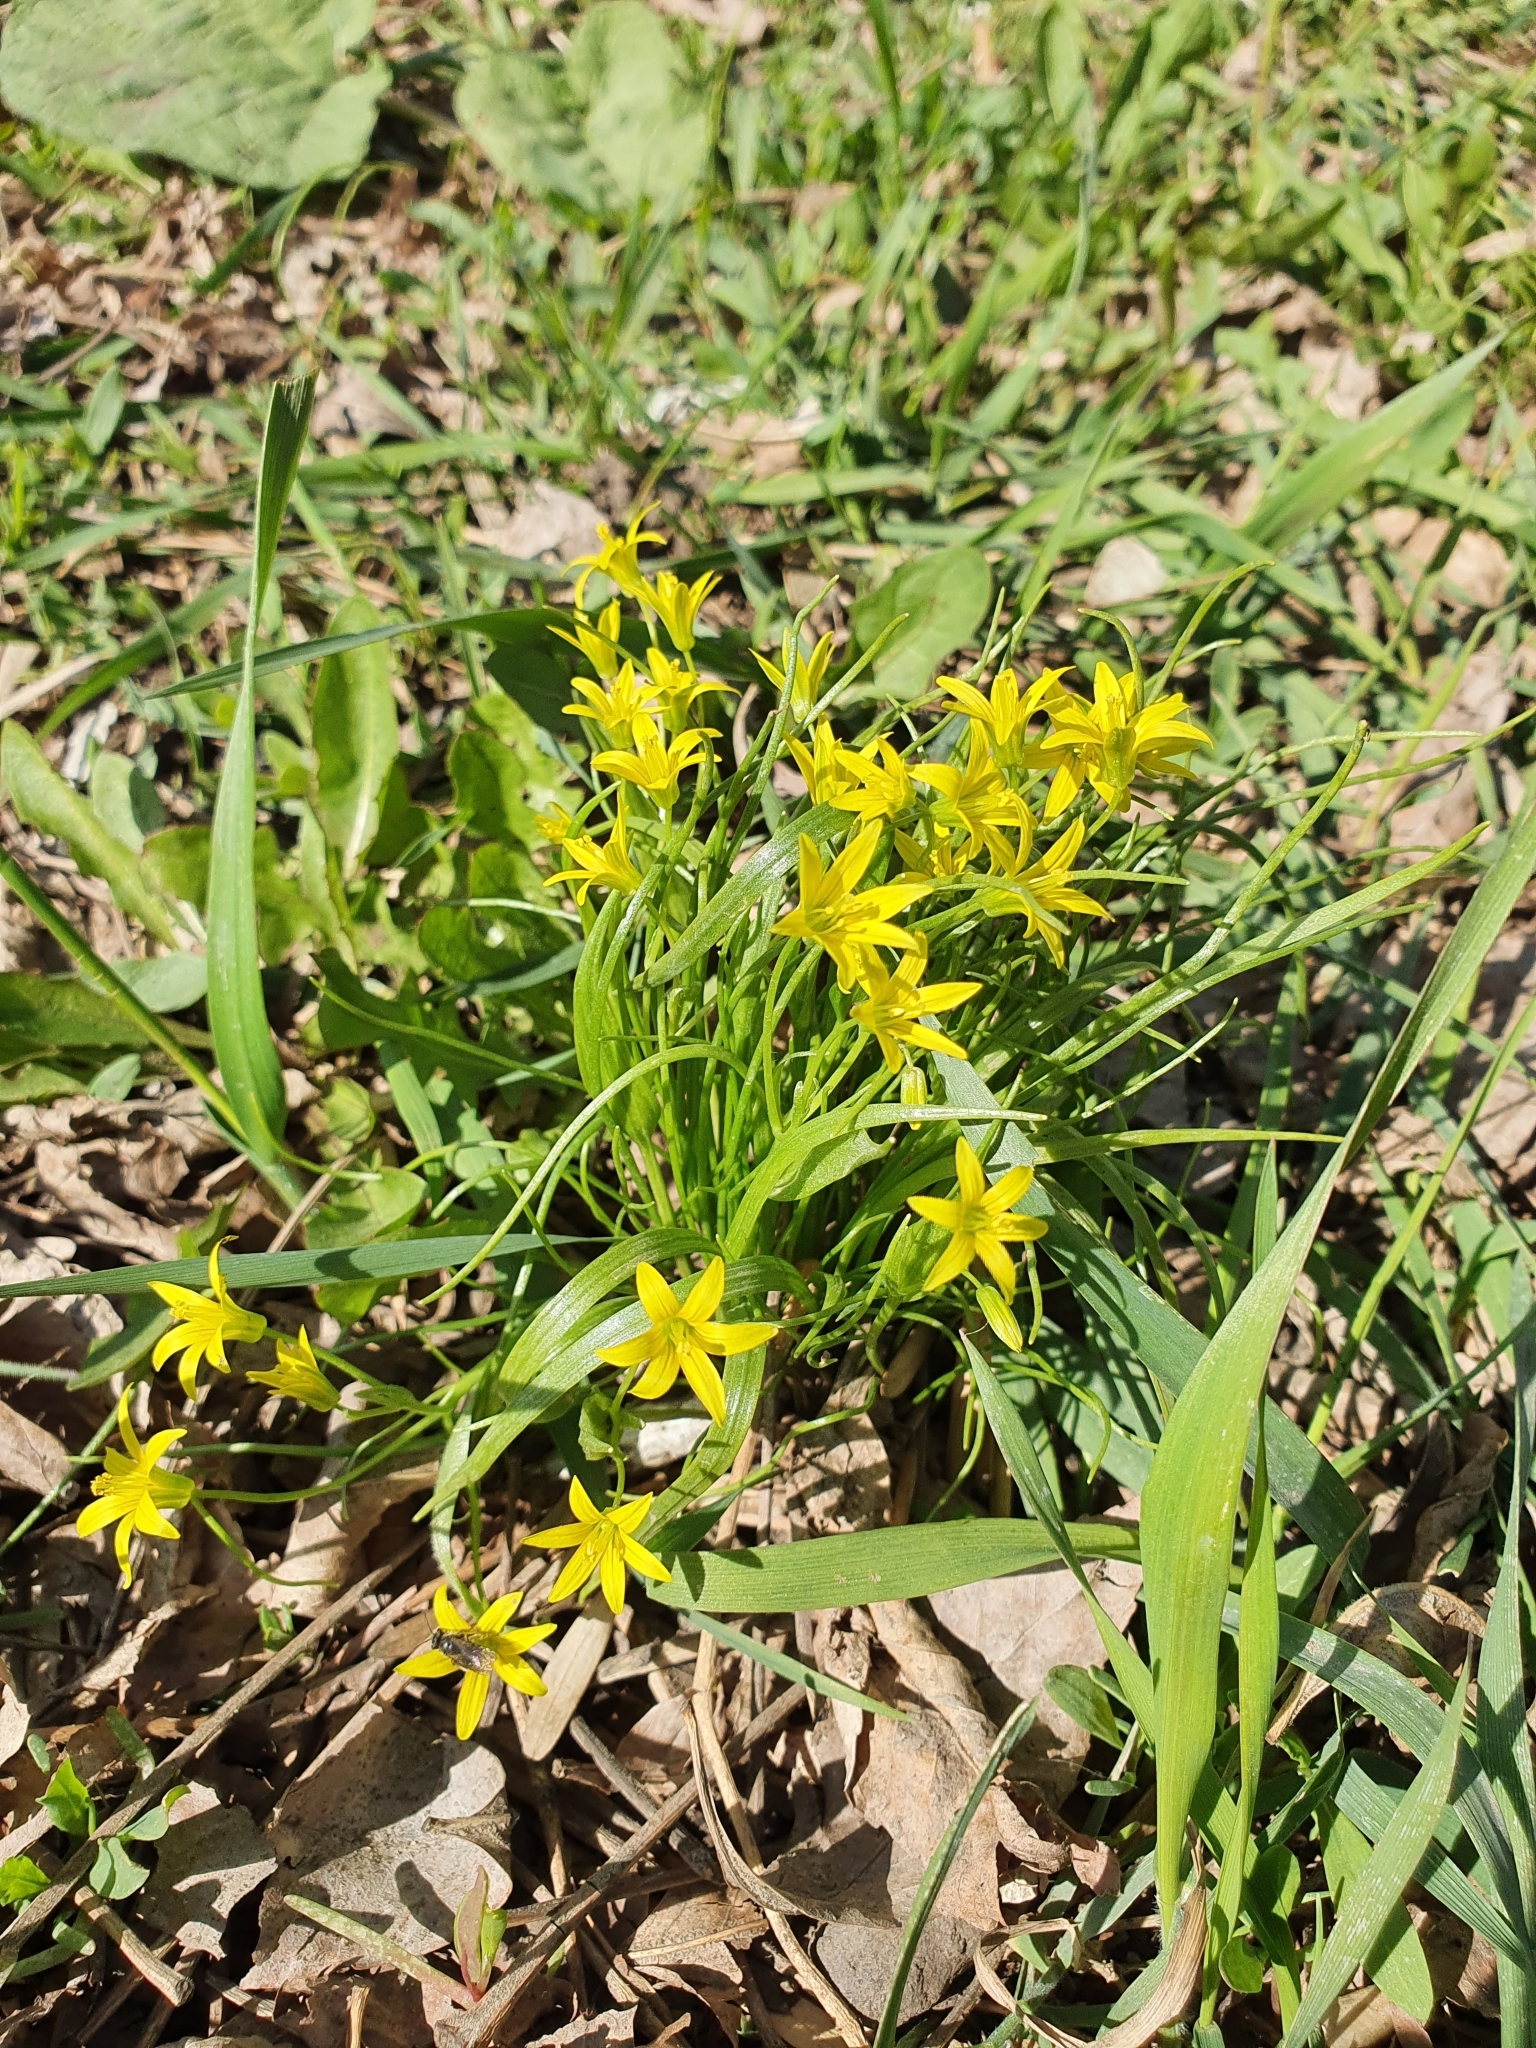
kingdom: Plantae
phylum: Tracheophyta
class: Liliopsida
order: Liliales
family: Liliaceae
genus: Gagea
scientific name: Gagea minima
